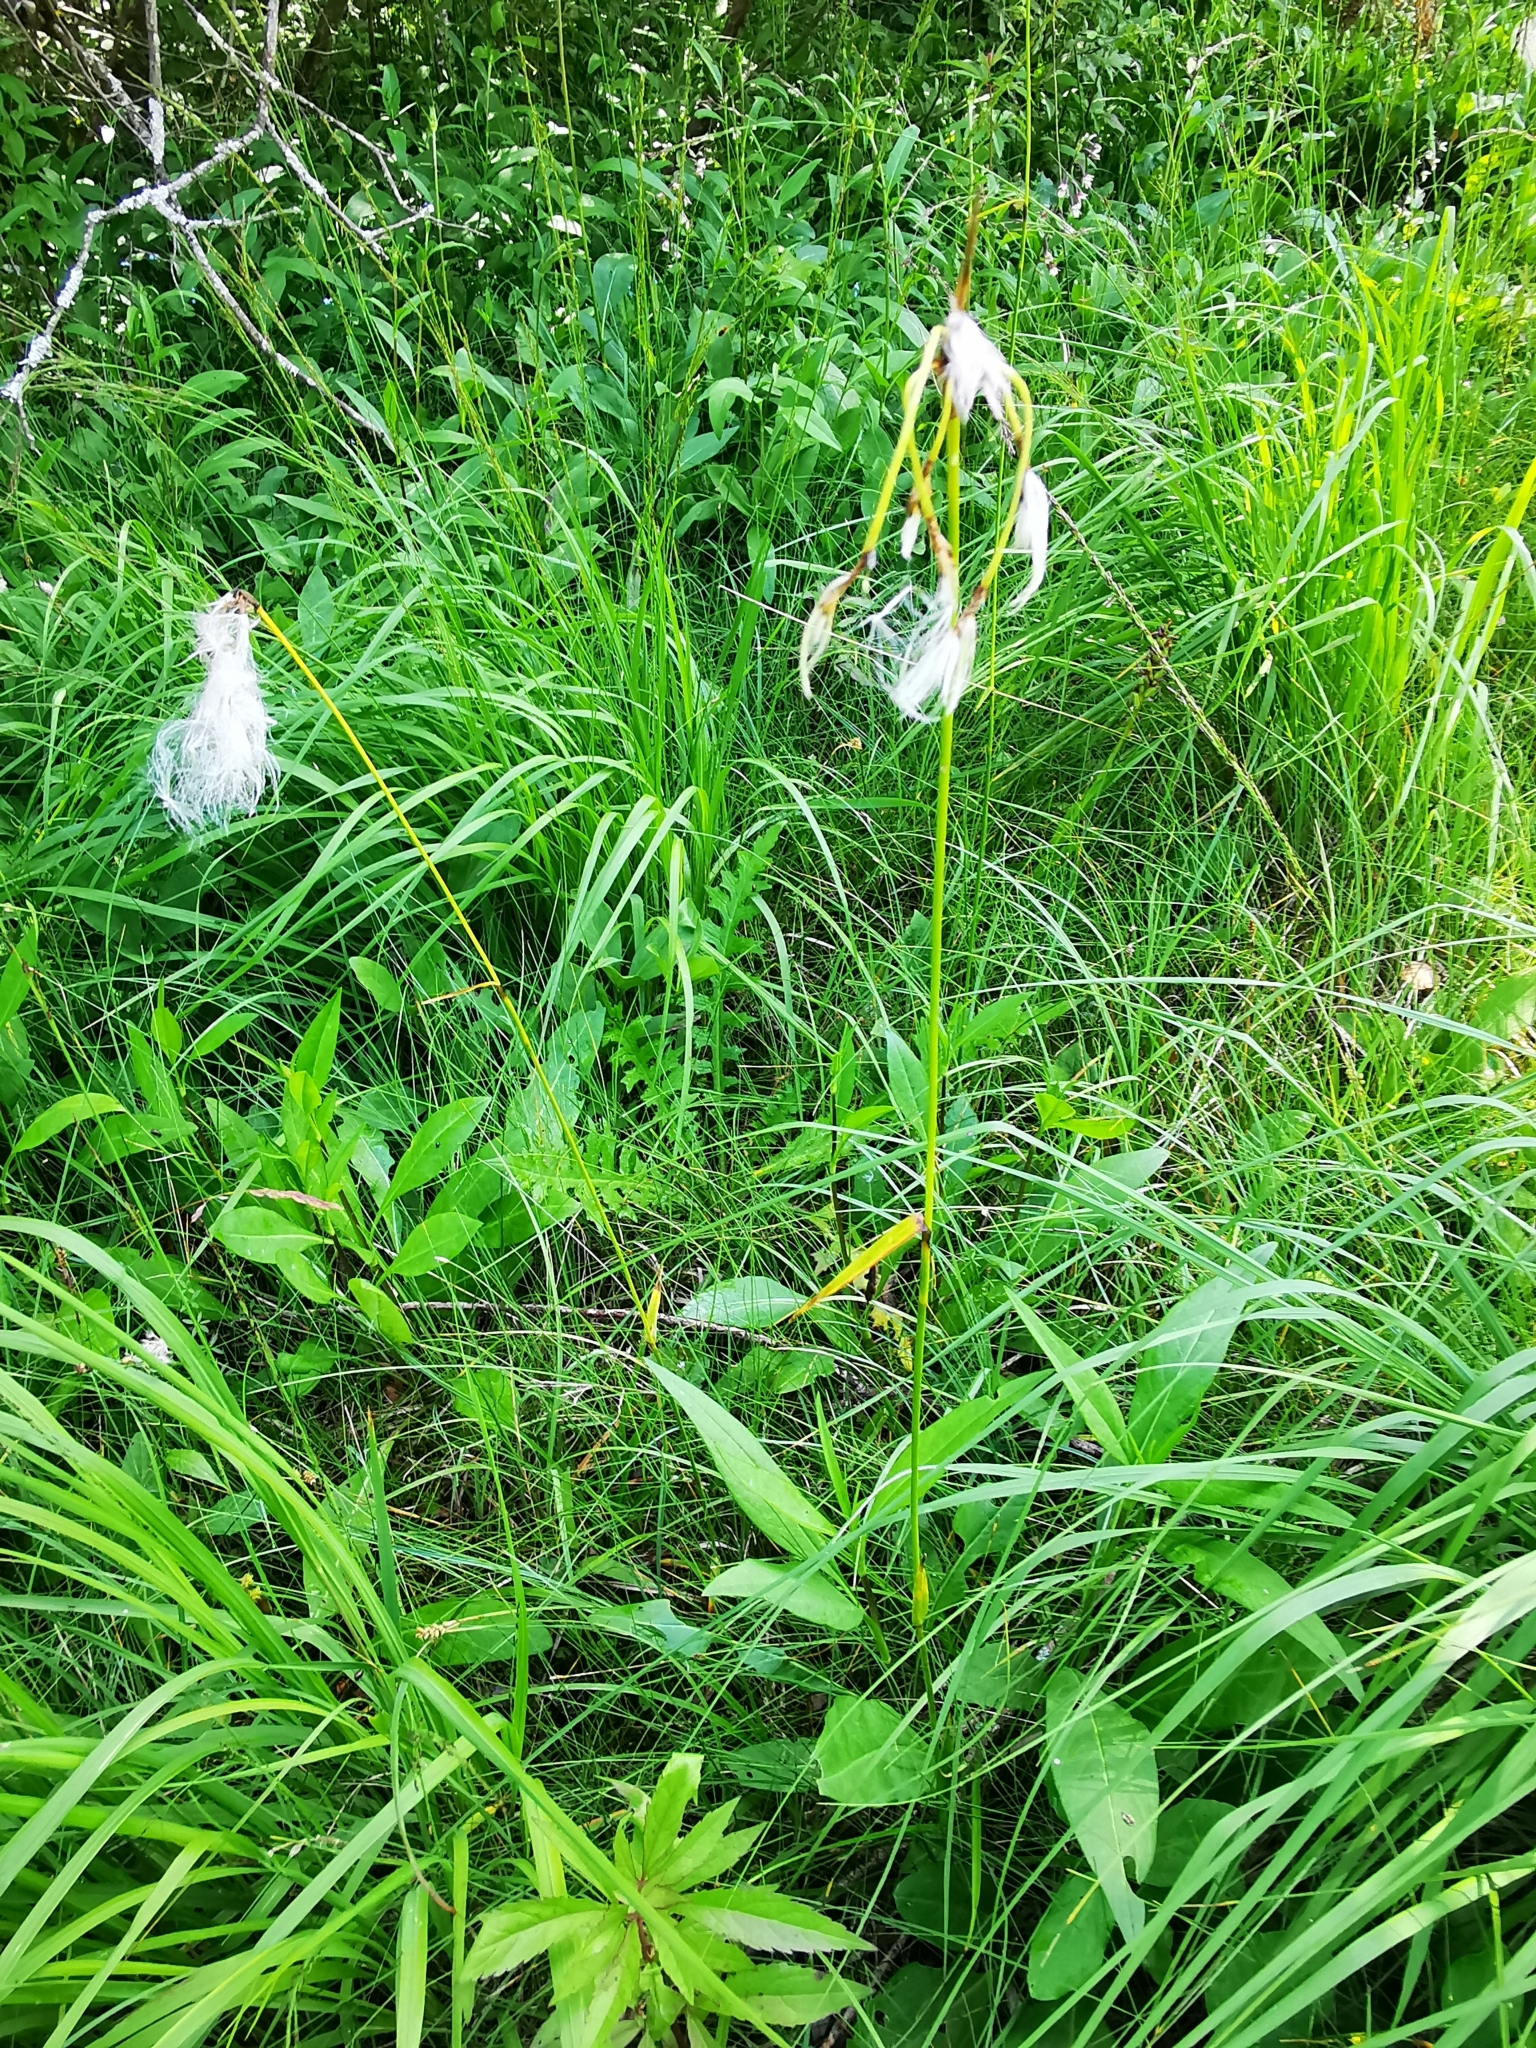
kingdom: Plantae
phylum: Tracheophyta
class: Liliopsida
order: Poales
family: Cyperaceae
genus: Eriophorum
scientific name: Eriophorum latifolium
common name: Broad-leaved cottongrass
